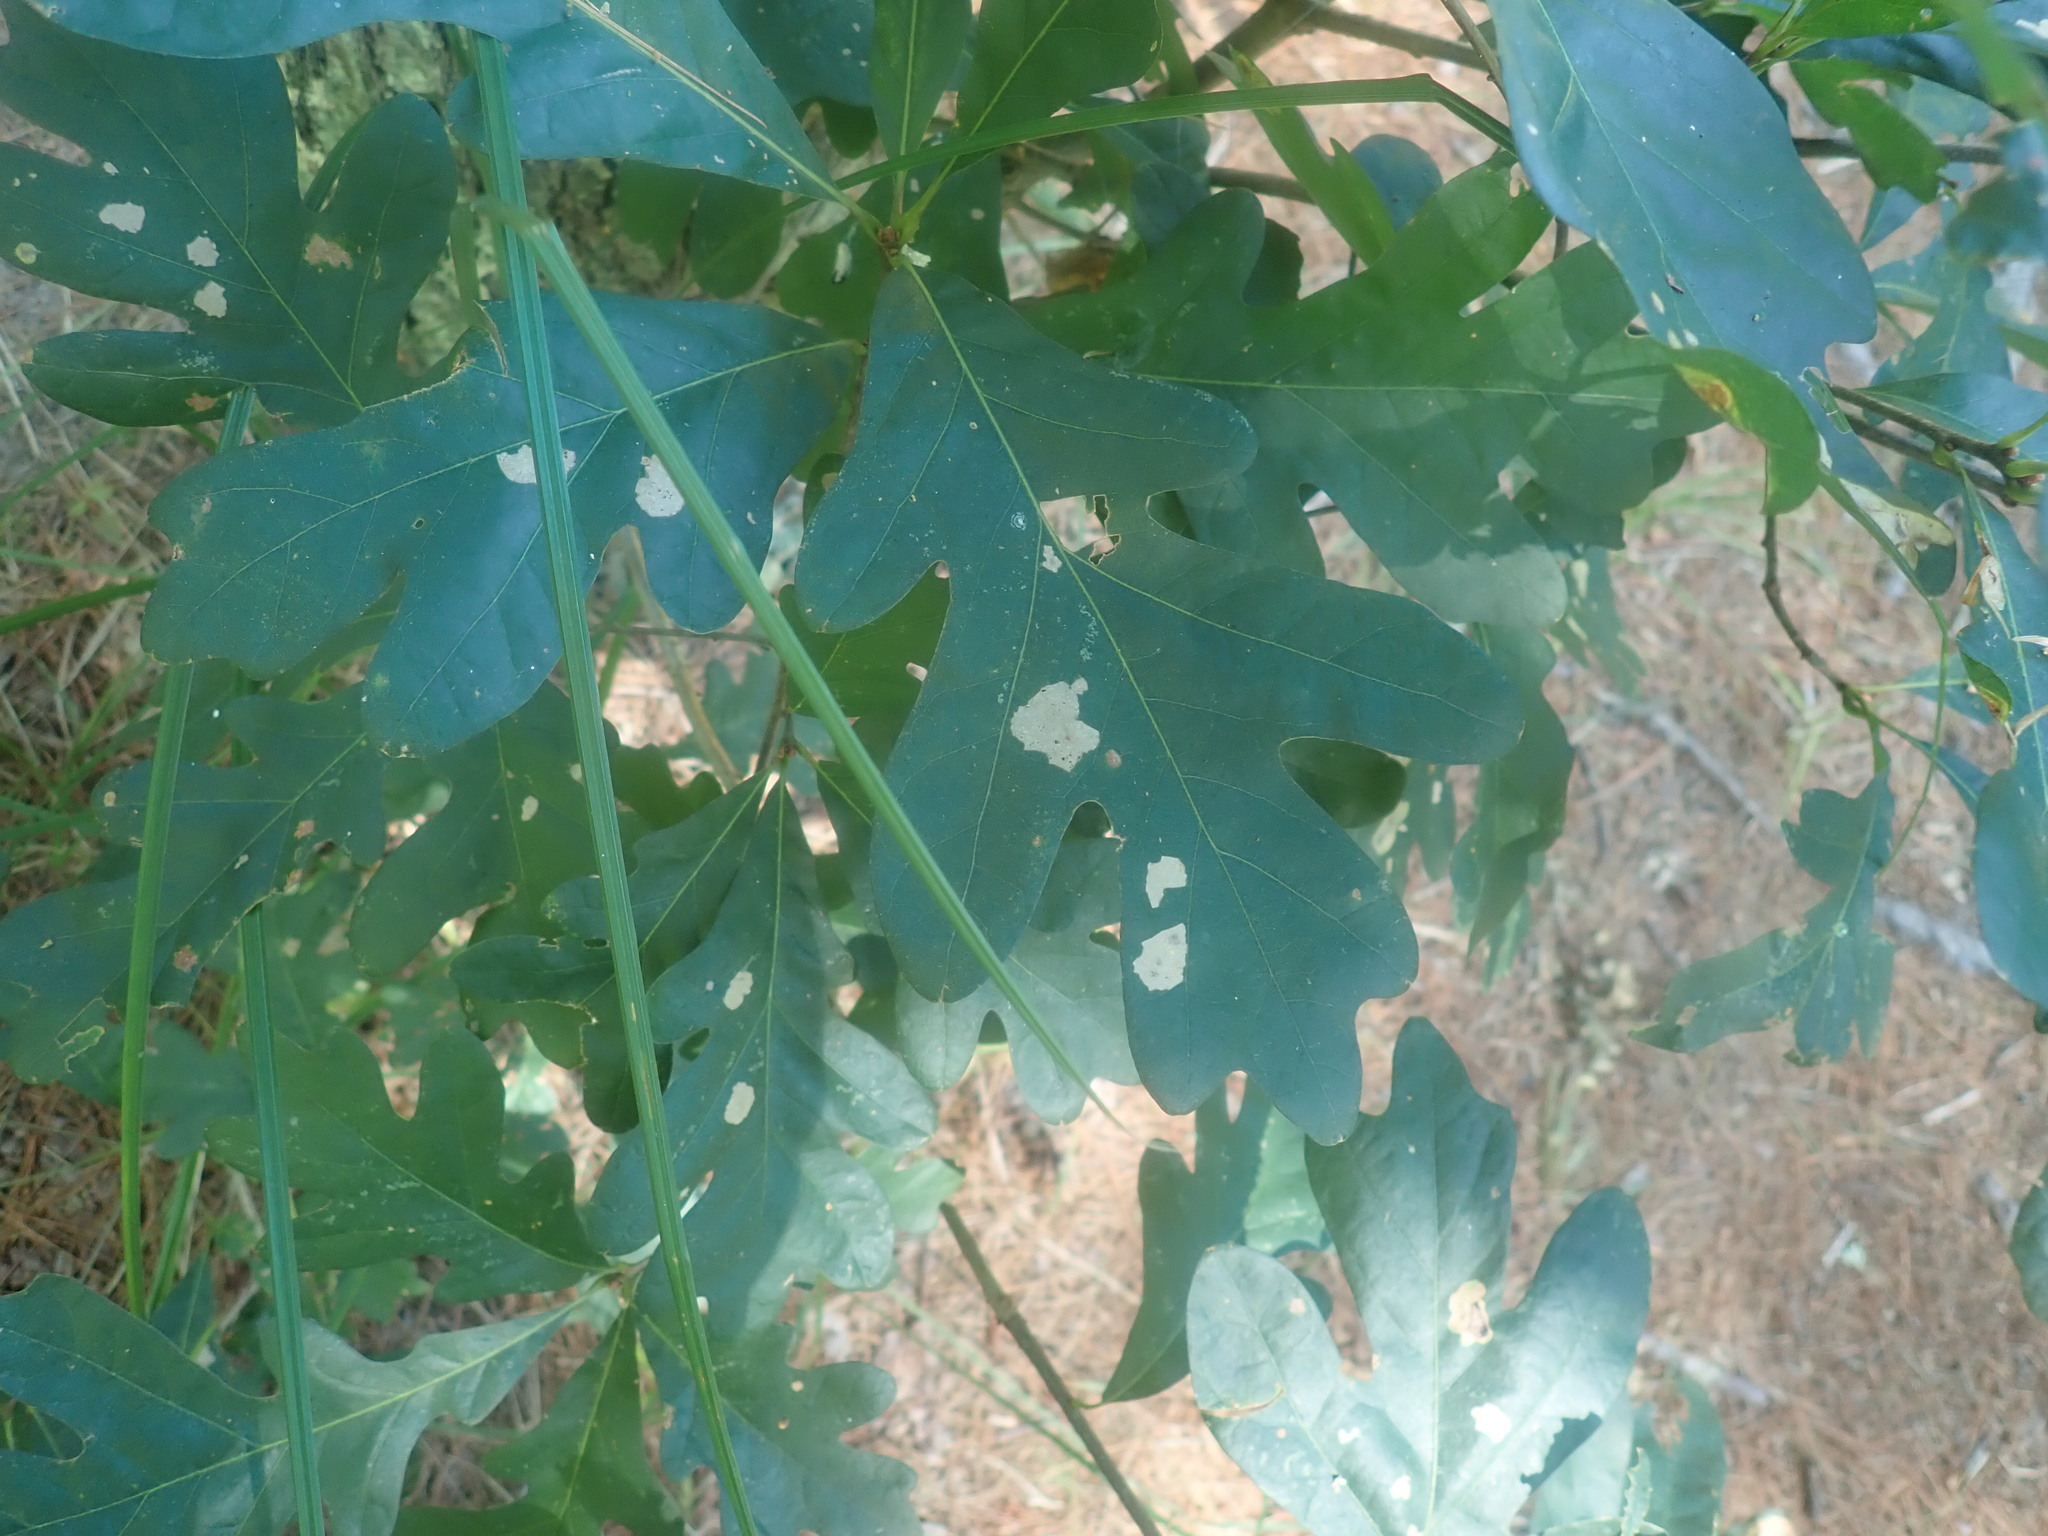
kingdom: Plantae
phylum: Tracheophyta
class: Magnoliopsida
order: Fagales
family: Fagaceae
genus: Quercus
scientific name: Quercus alba
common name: White oak
